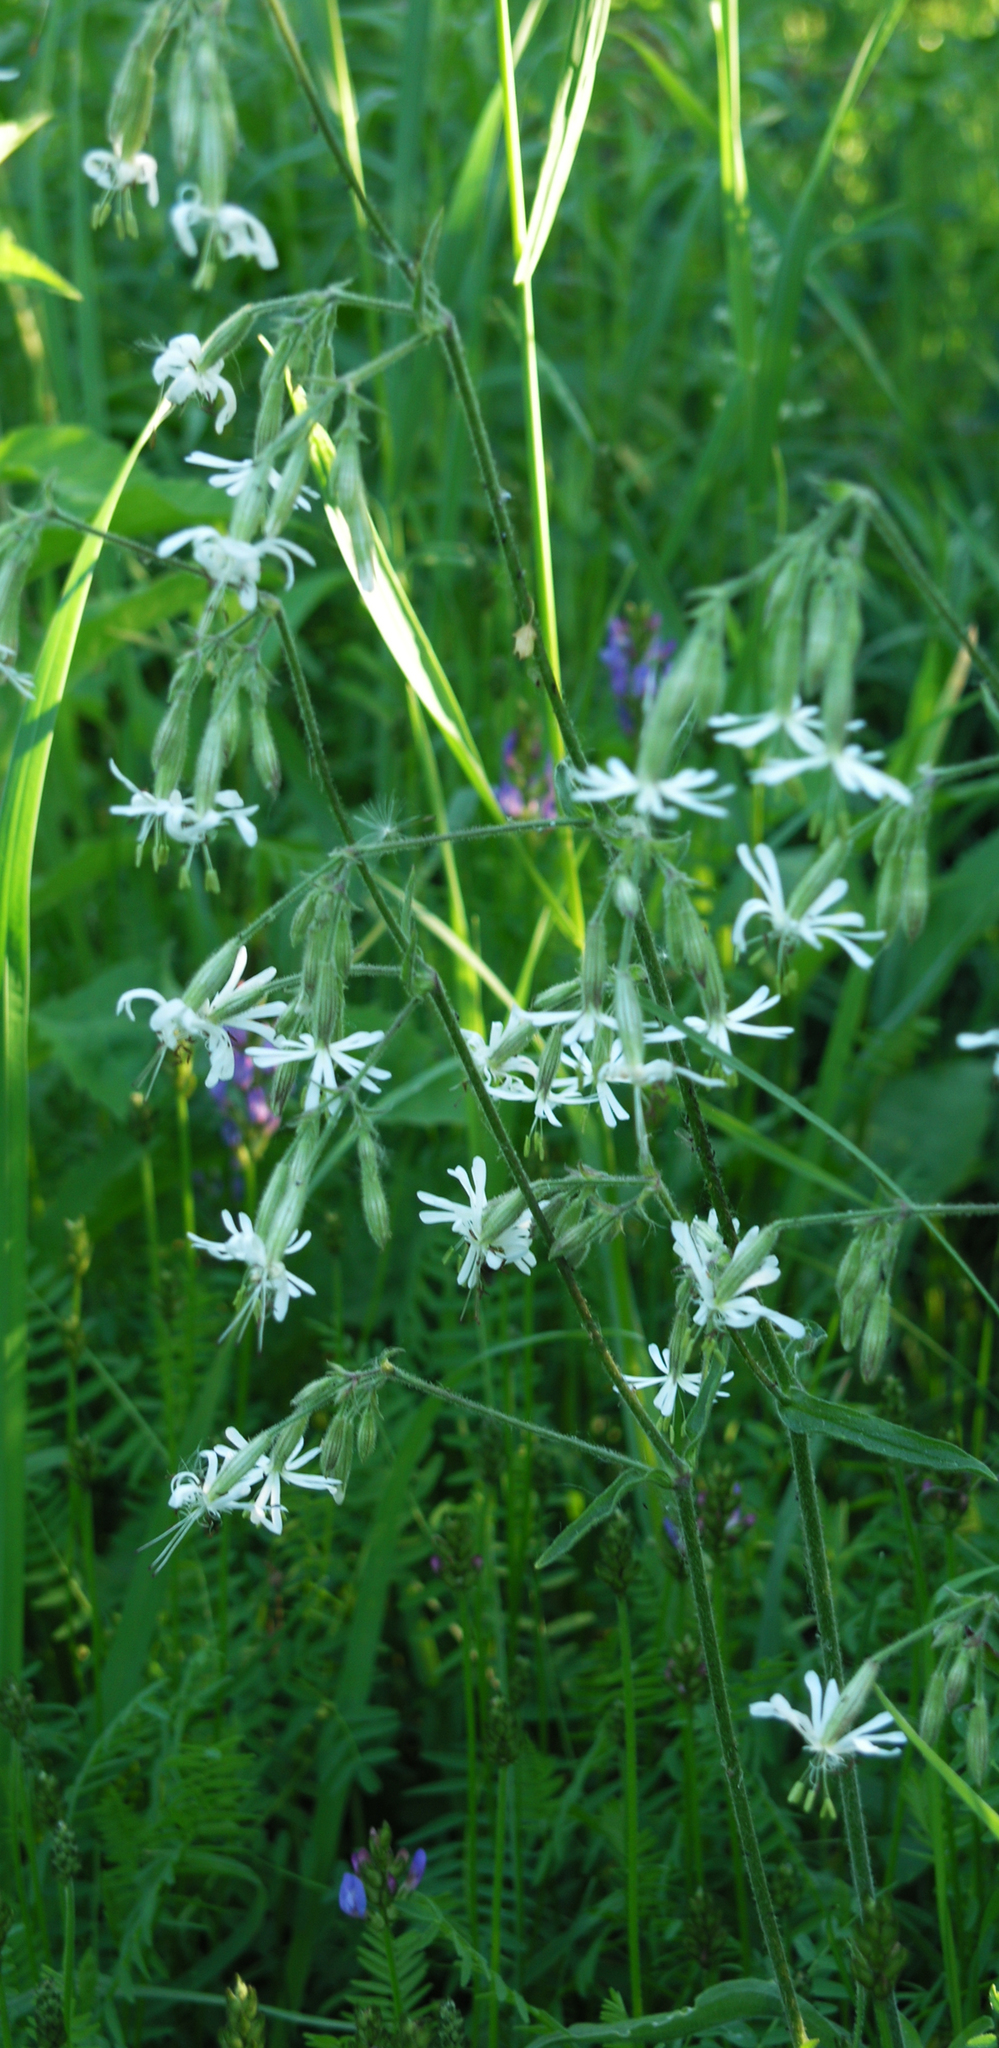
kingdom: Plantae
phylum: Tracheophyta
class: Magnoliopsida
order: Caryophyllales
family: Caryophyllaceae
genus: Silene
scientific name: Silene nutans
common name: Nottingham catchfly
